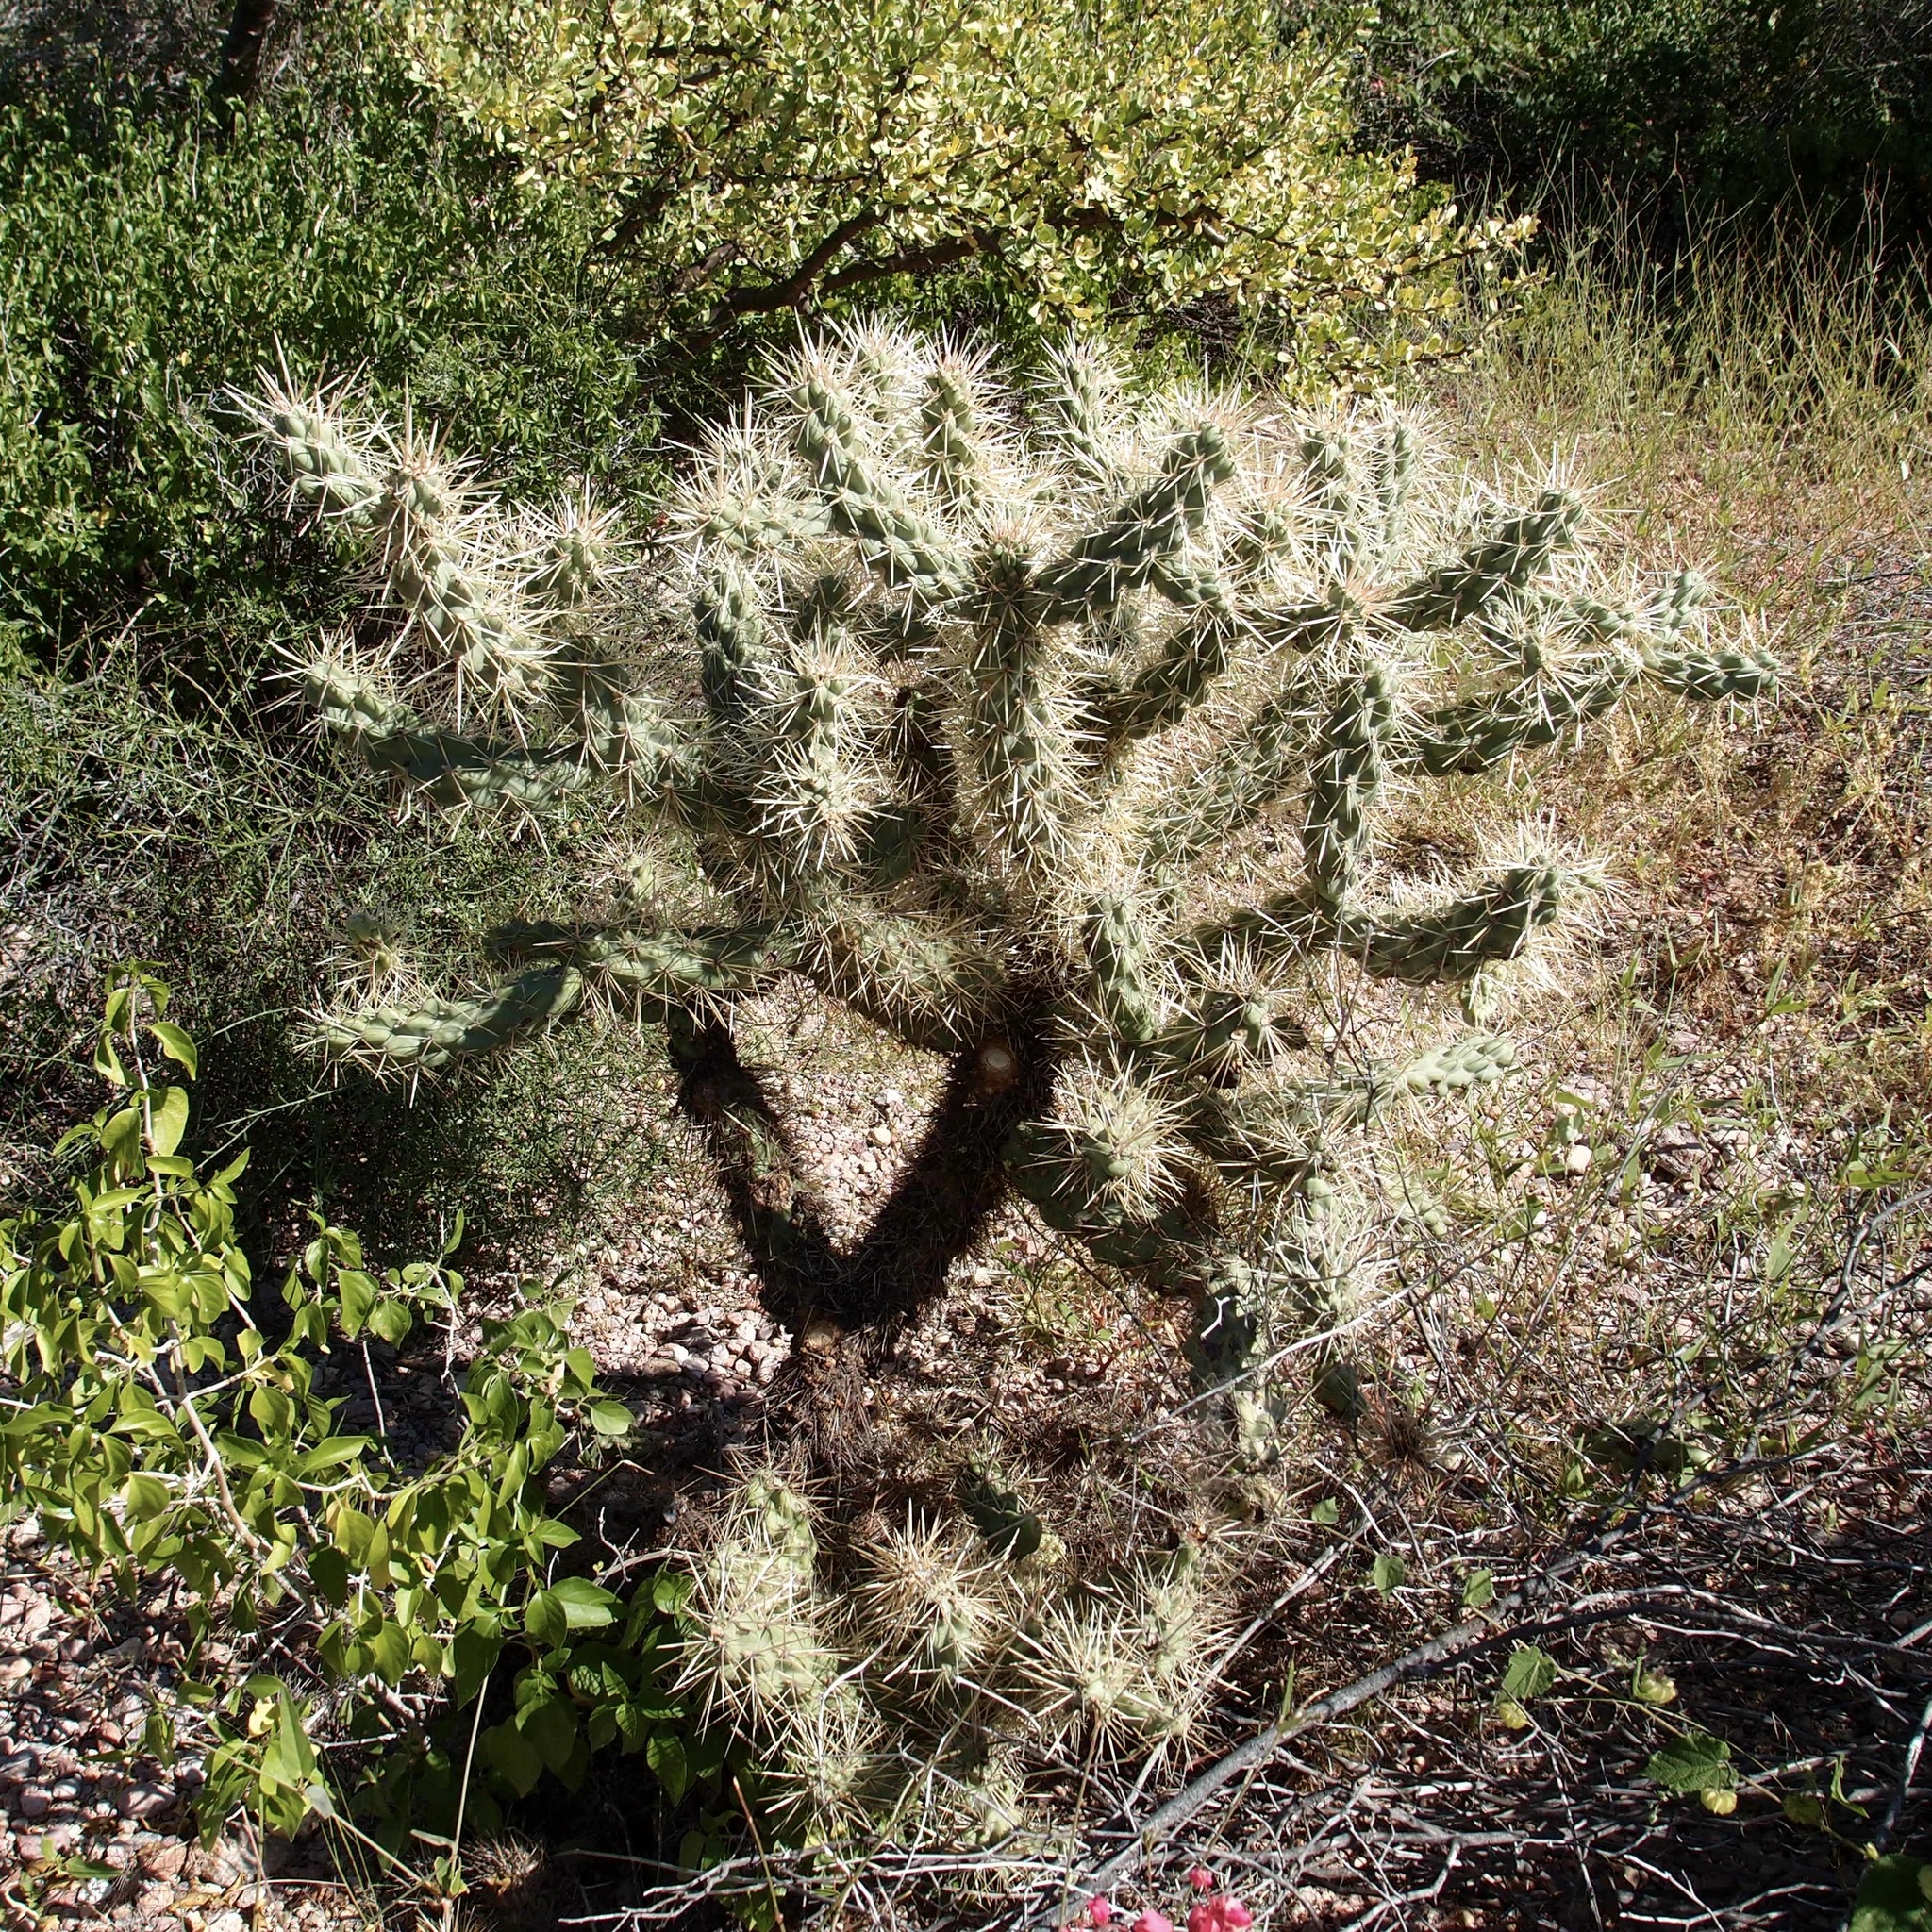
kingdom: Plantae
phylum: Tracheophyta
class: Magnoliopsida
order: Caryophyllales
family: Cactaceae
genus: Cylindropuntia
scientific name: Cylindropuntia fulgida
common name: Jumping cholla
